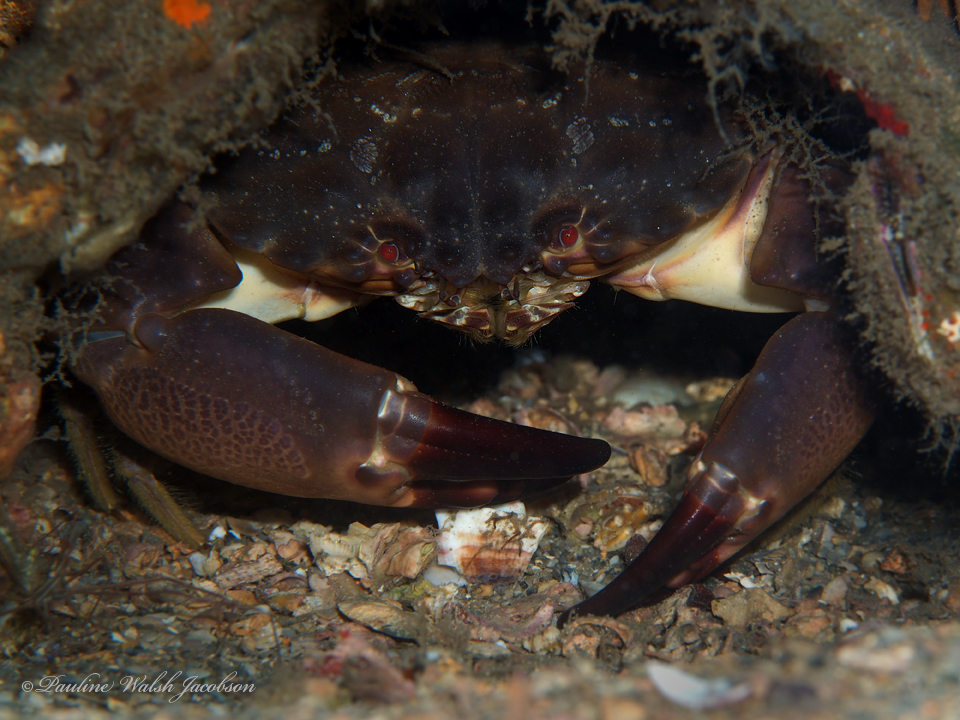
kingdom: Animalia
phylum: Arthropoda
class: Malacostraca
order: Decapoda
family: Menippidae
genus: Menippe
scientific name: Menippe mercenaria
